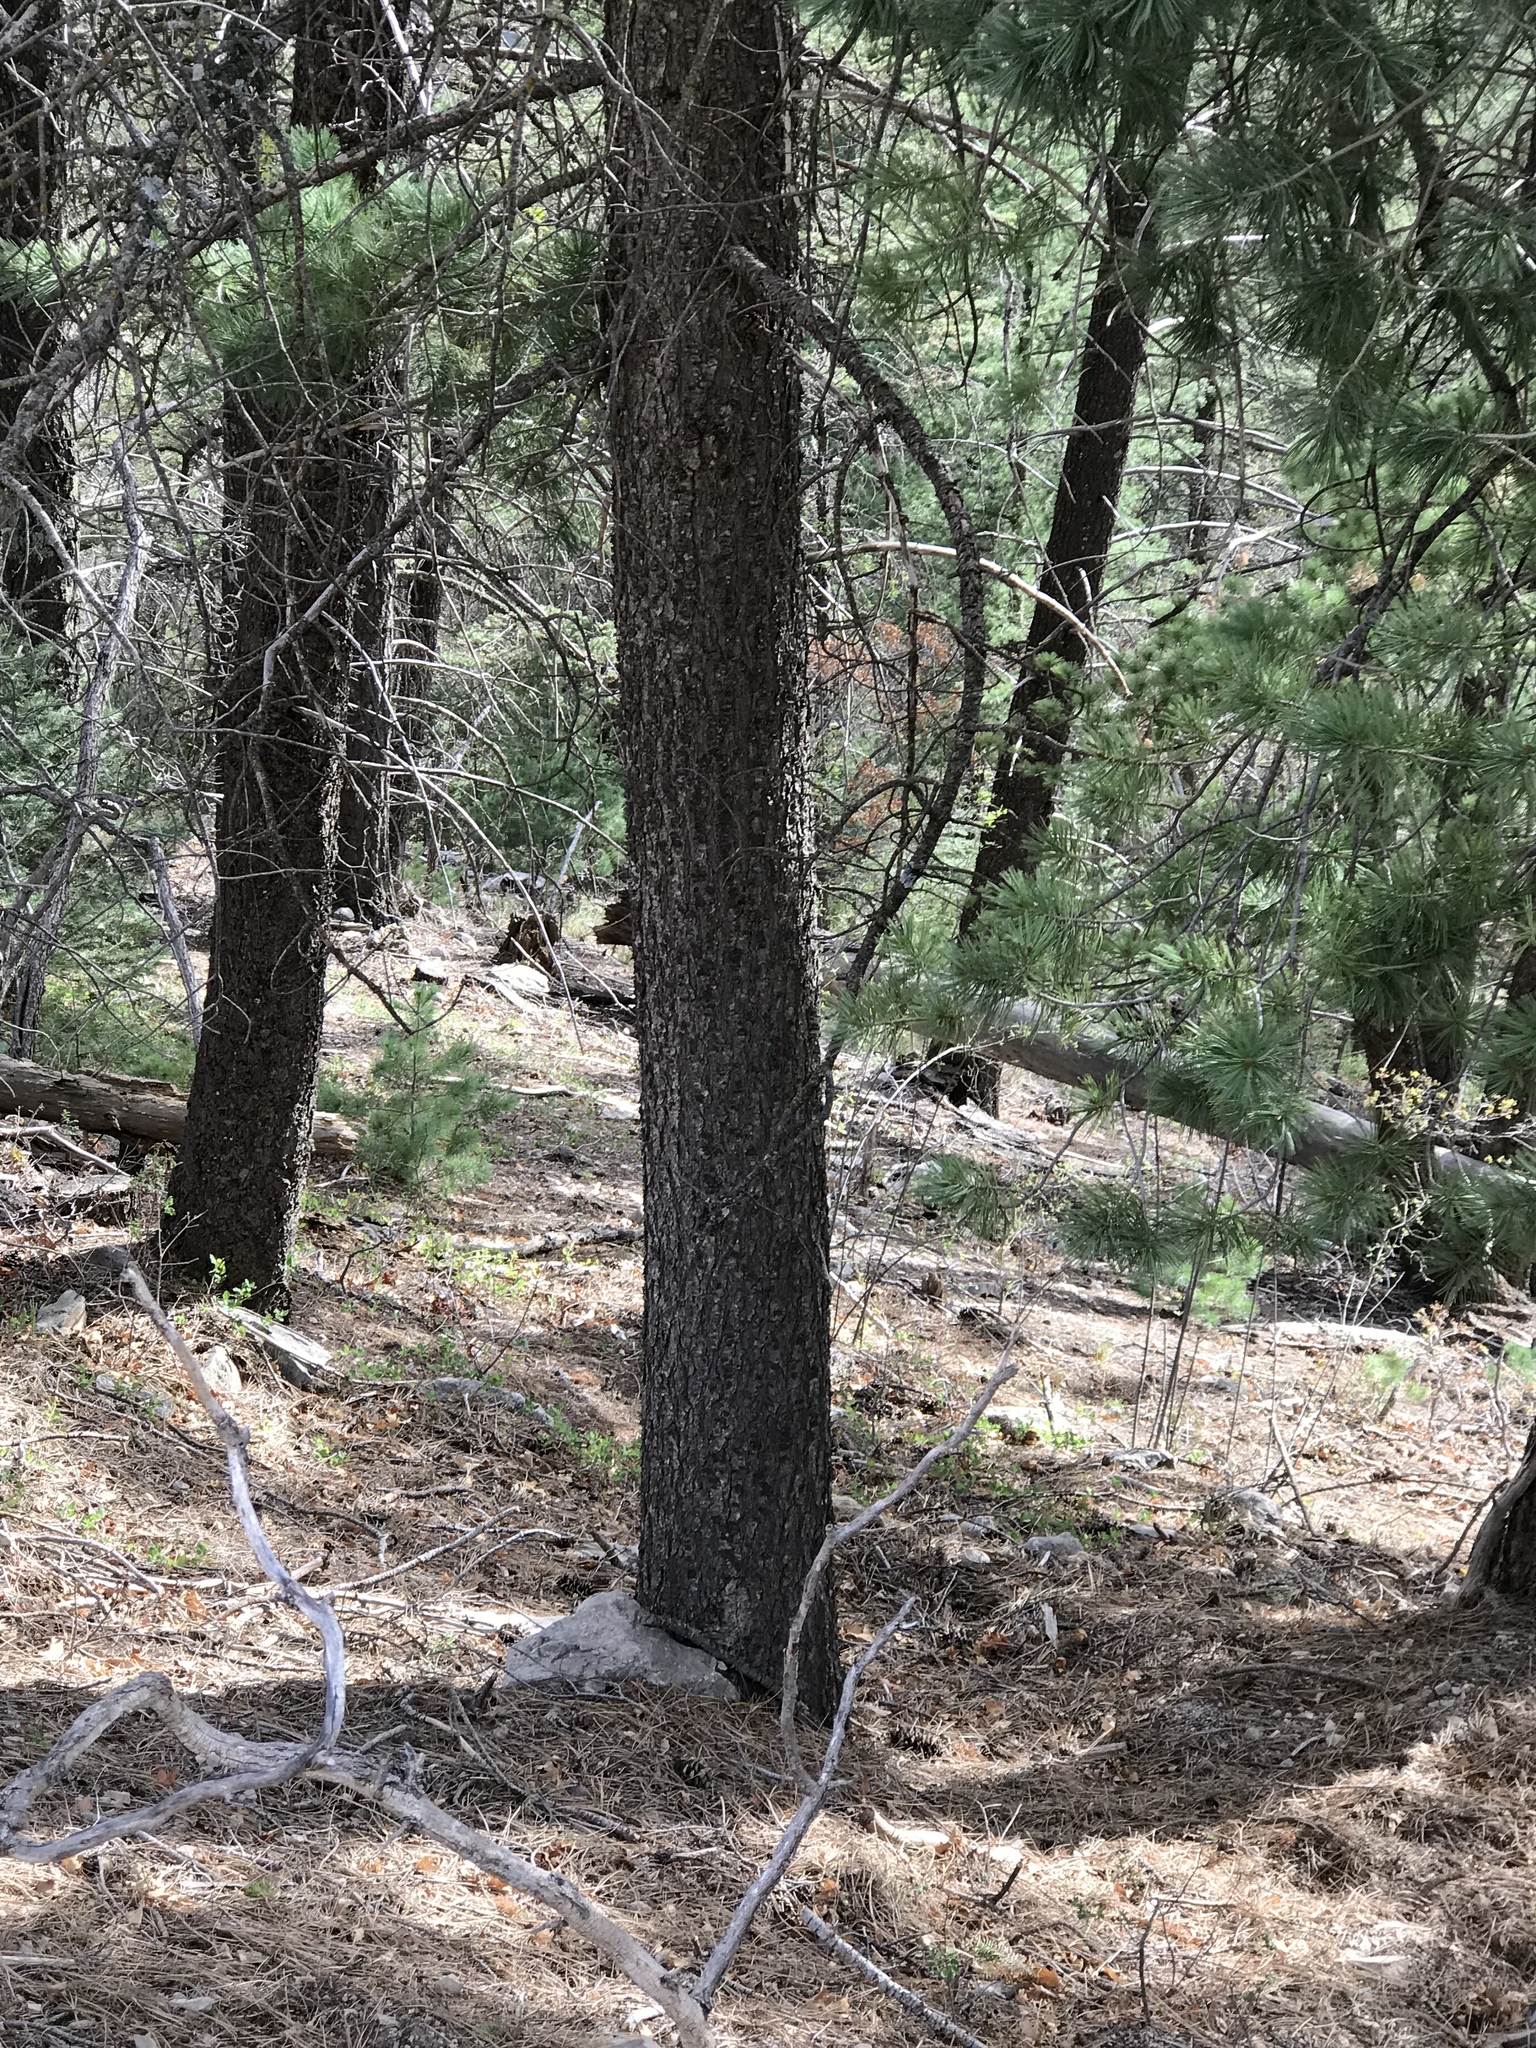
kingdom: Plantae
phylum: Tracheophyta
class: Pinopsida
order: Pinales
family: Pinaceae
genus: Pinus
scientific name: Pinus strobiformis
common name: Southwestern white pine
